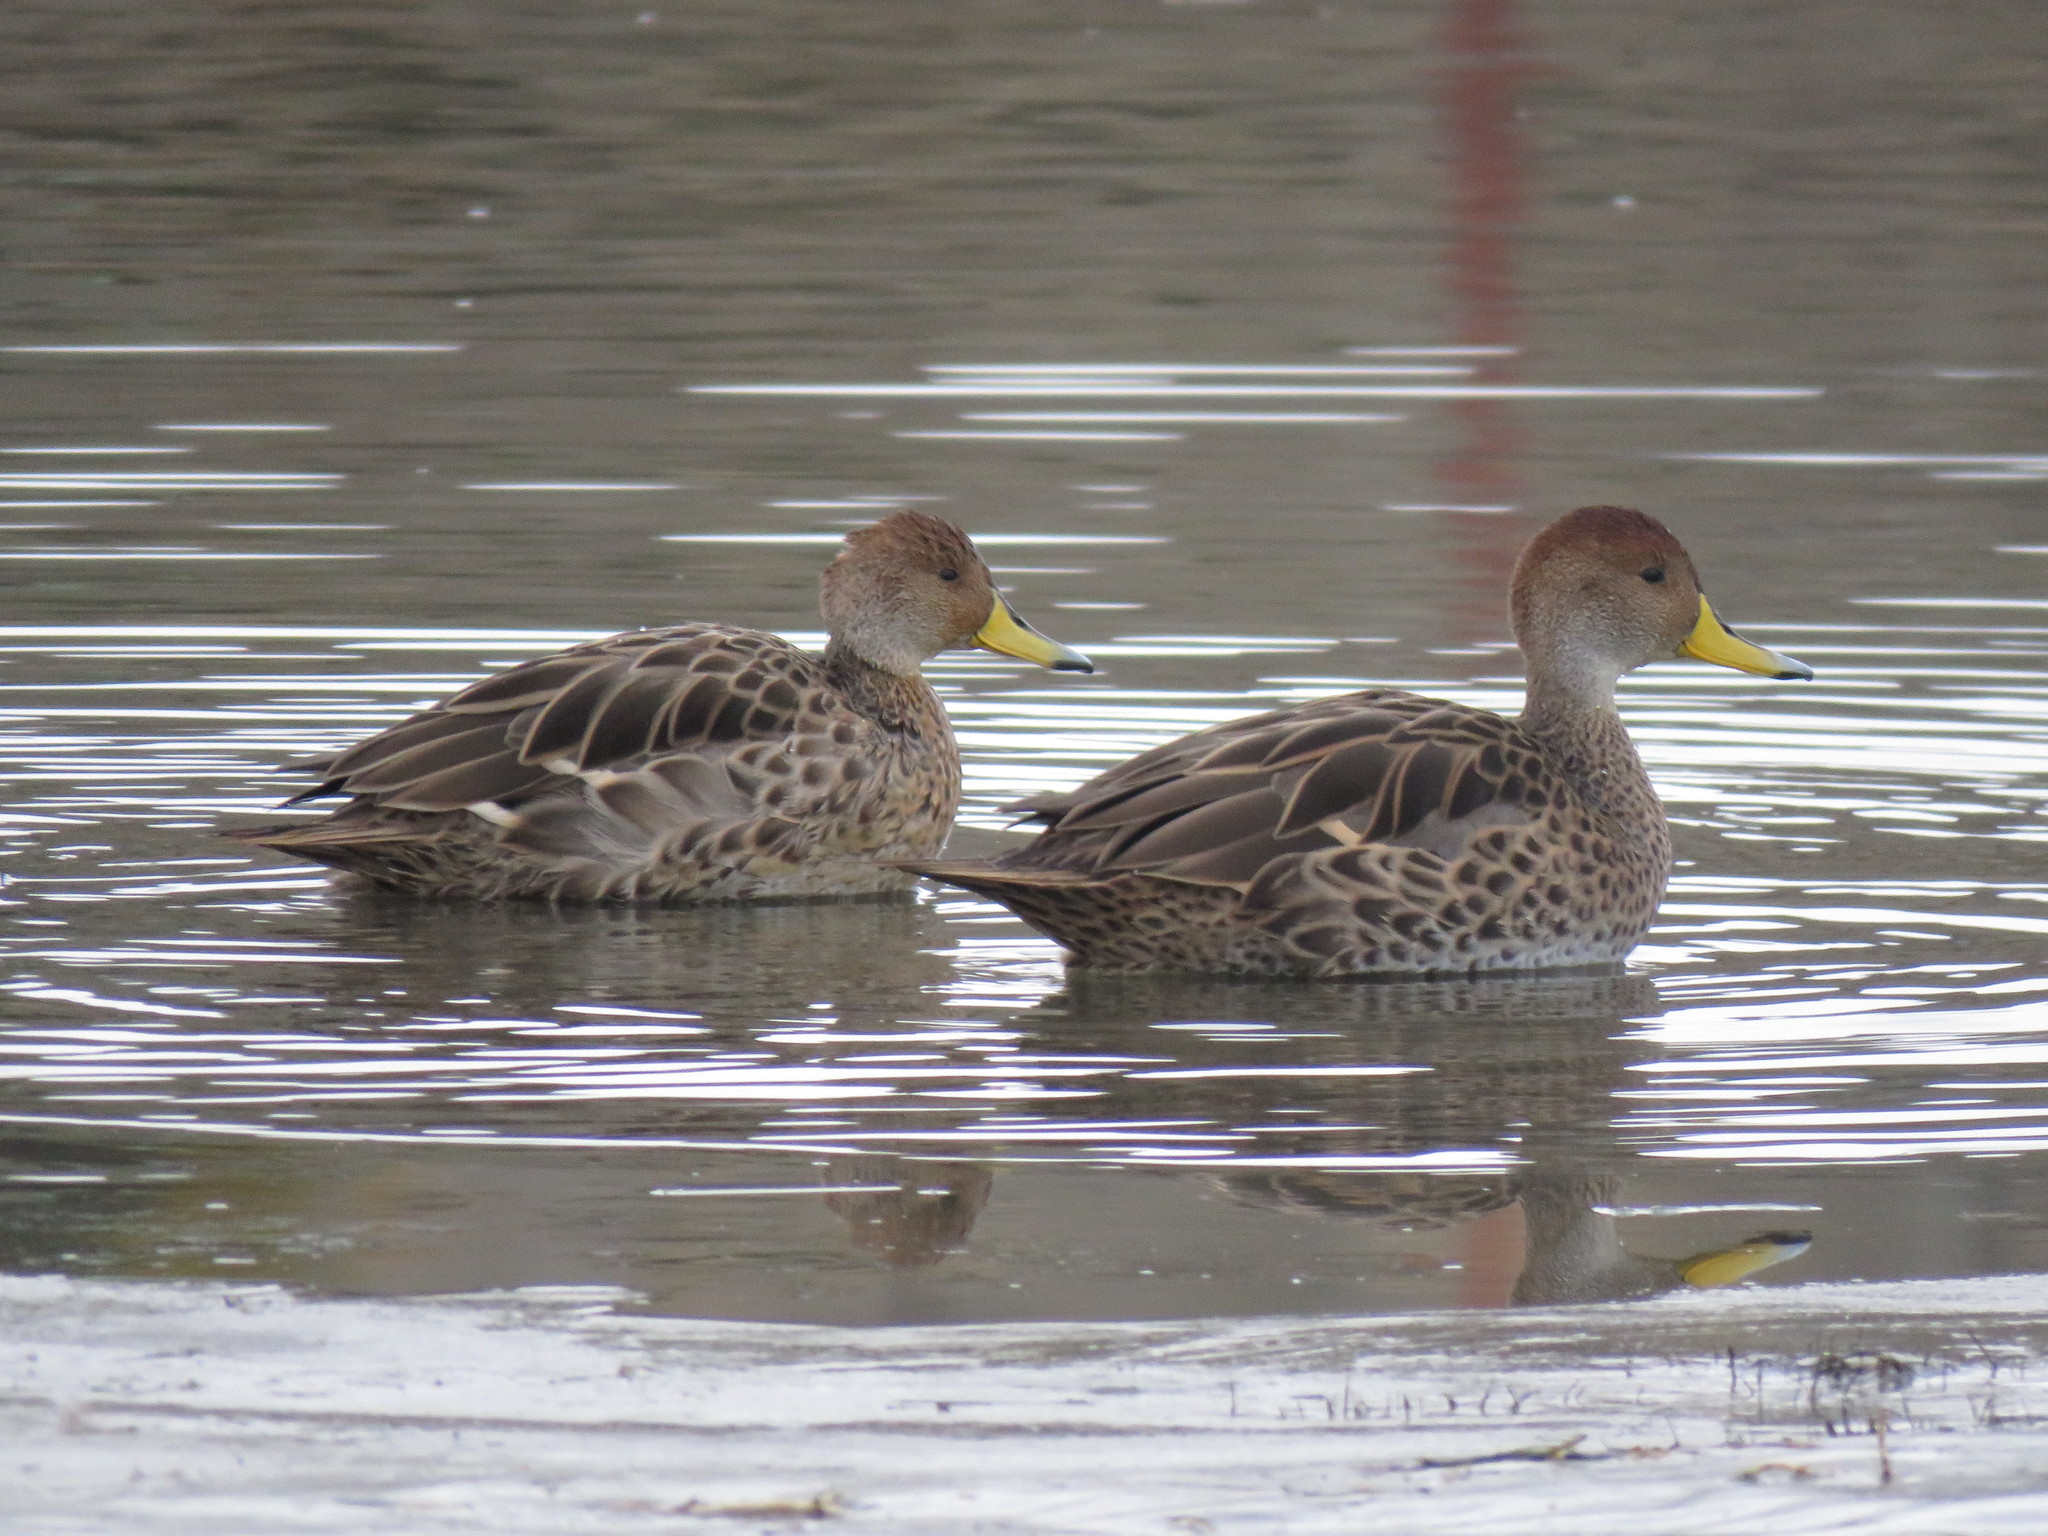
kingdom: Animalia
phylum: Chordata
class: Aves
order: Anseriformes
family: Anatidae
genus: Anas
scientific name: Anas georgica
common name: Yellow-billed pintail
